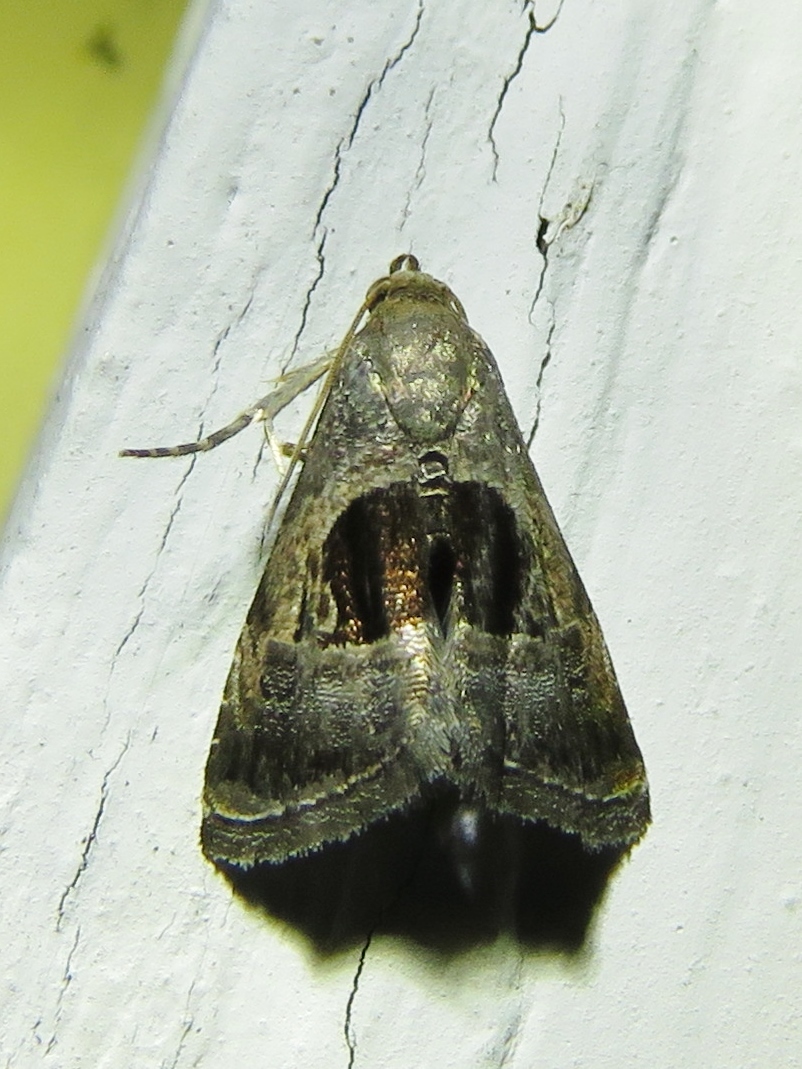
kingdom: Animalia
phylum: Arthropoda
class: Insecta
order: Lepidoptera
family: Noctuidae
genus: Tripudia
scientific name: Tripudia quadrifera
